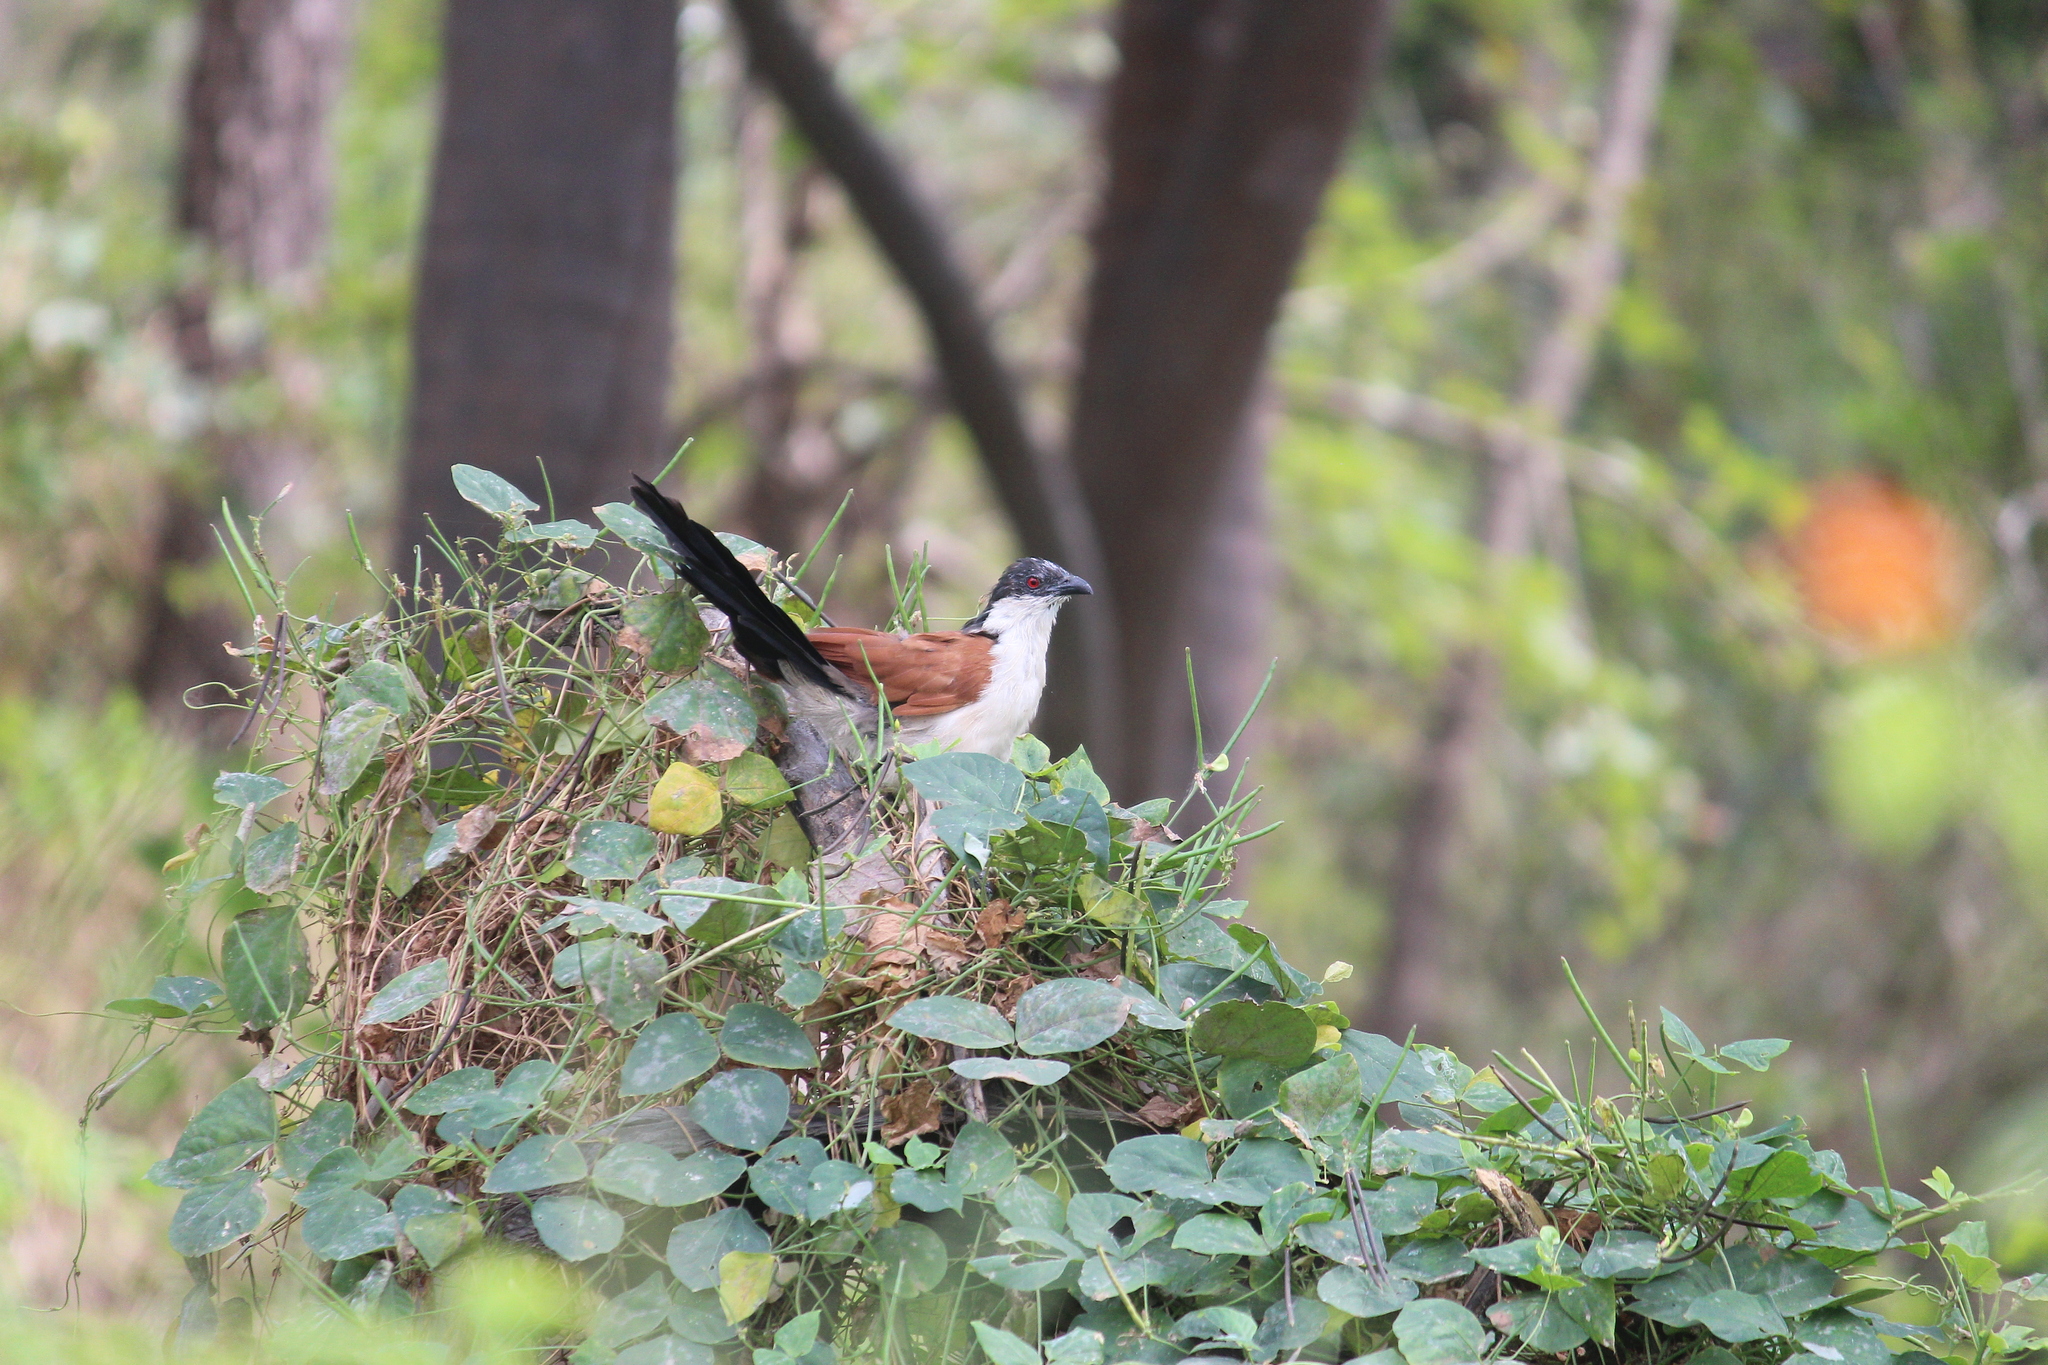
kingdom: Animalia
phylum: Chordata
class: Aves
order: Cuculiformes
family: Cuculidae
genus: Centropus
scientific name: Centropus senegalensis
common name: Senegal coucal
